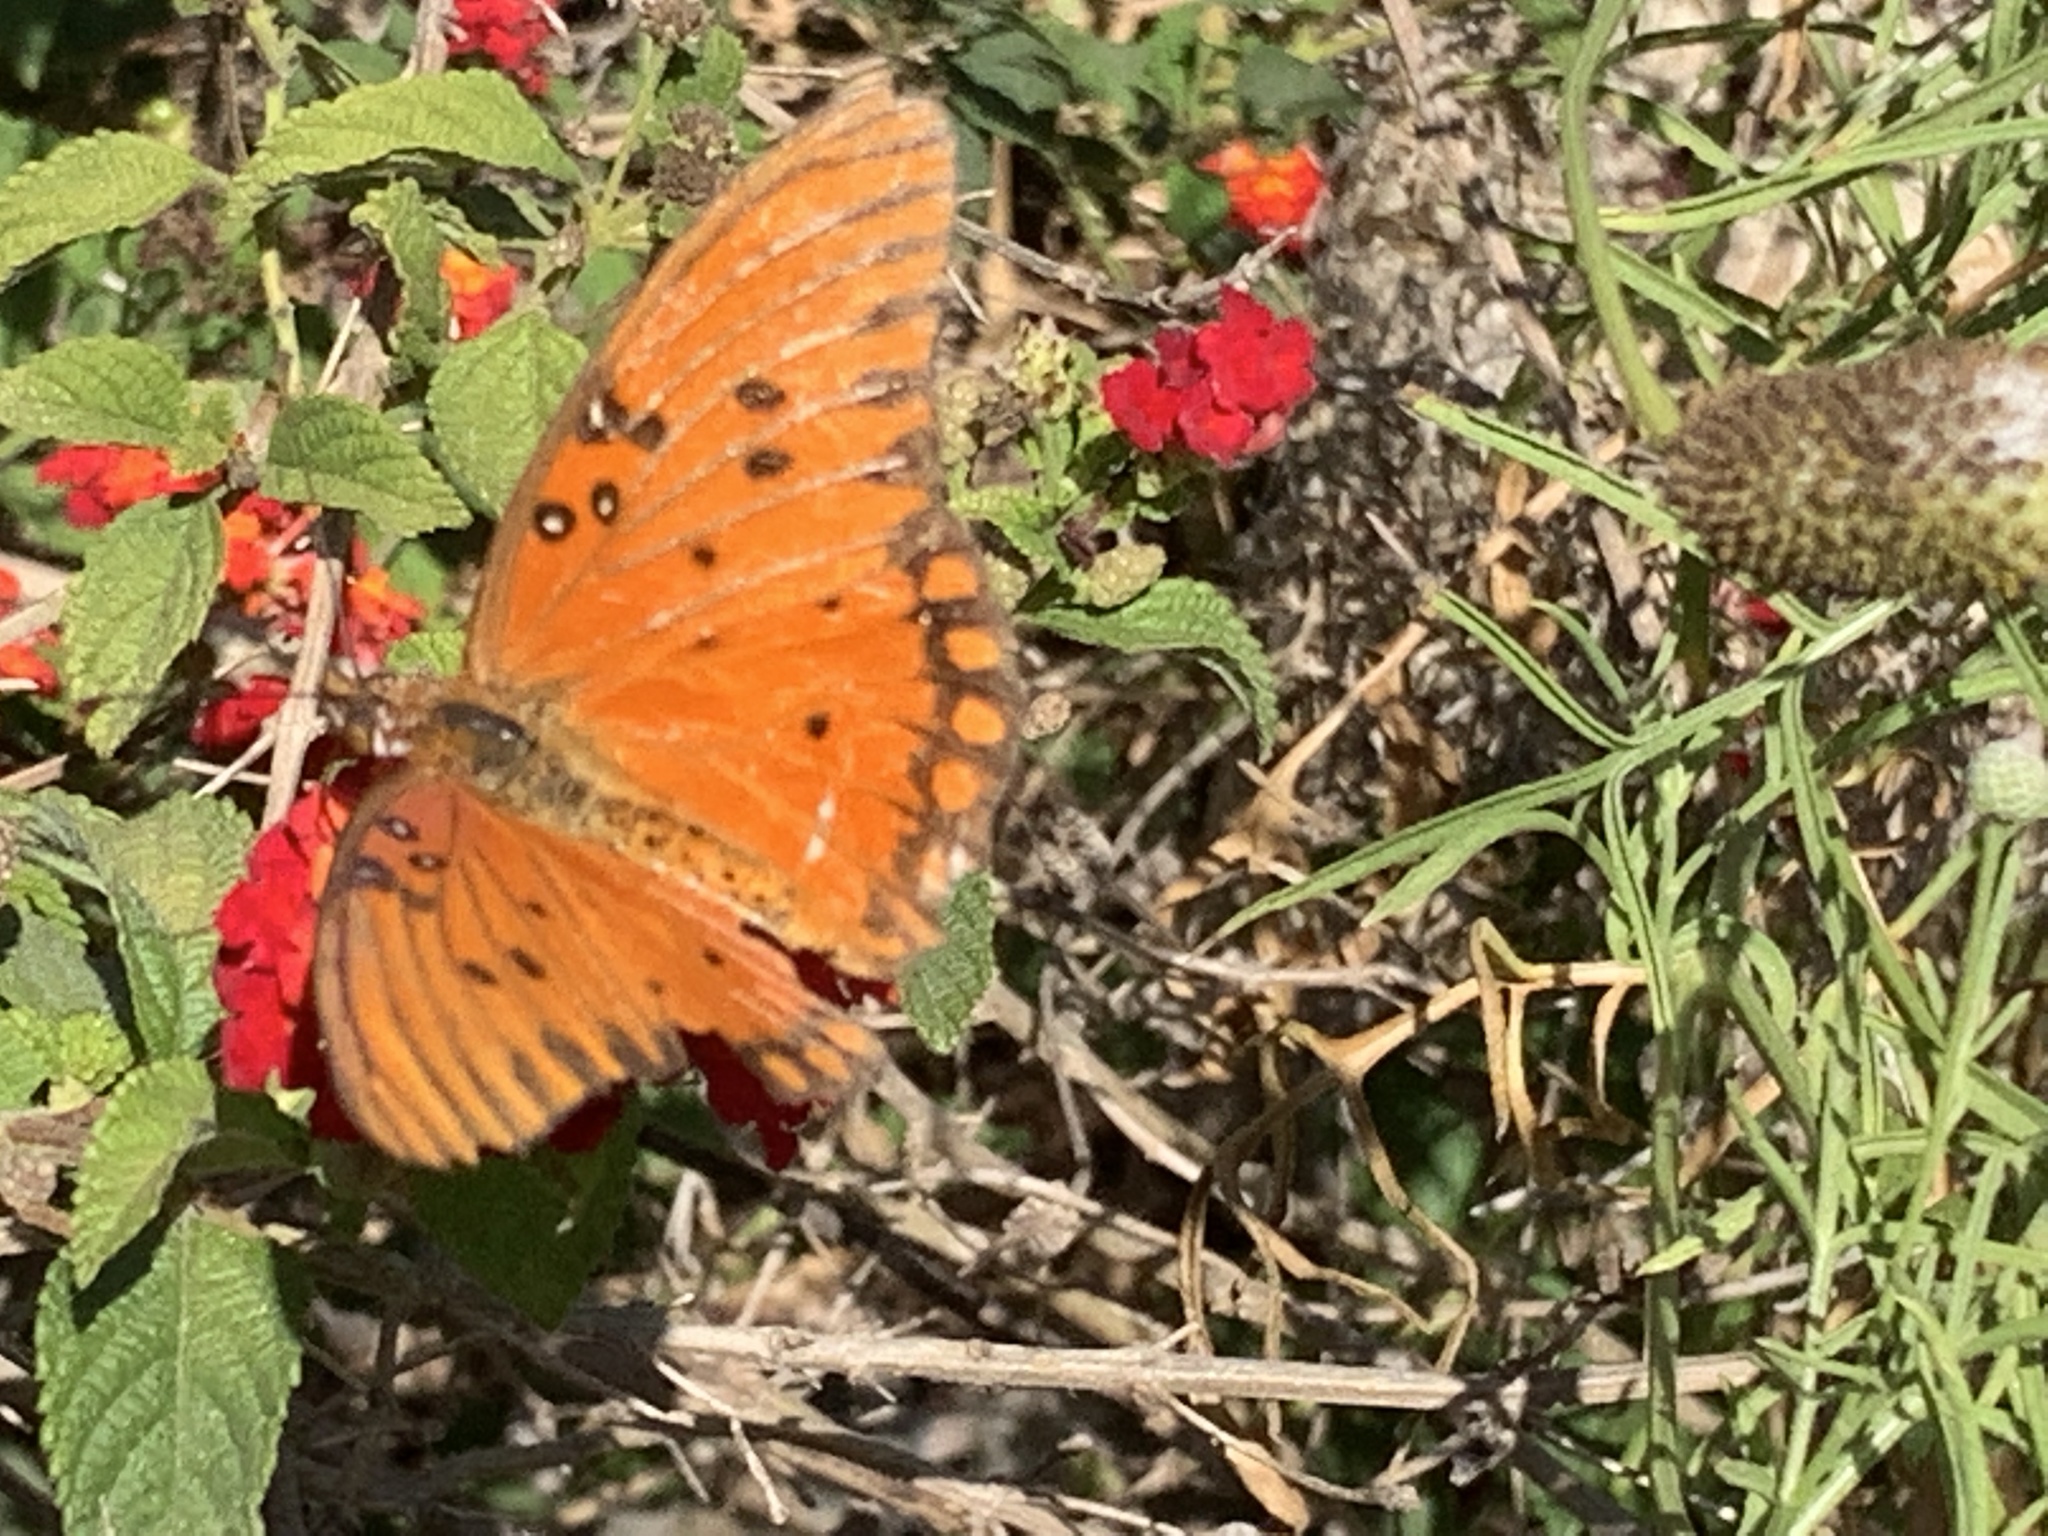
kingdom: Animalia
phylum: Arthropoda
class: Insecta
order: Lepidoptera
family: Nymphalidae
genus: Dione
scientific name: Dione vanillae
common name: Gulf fritillary
